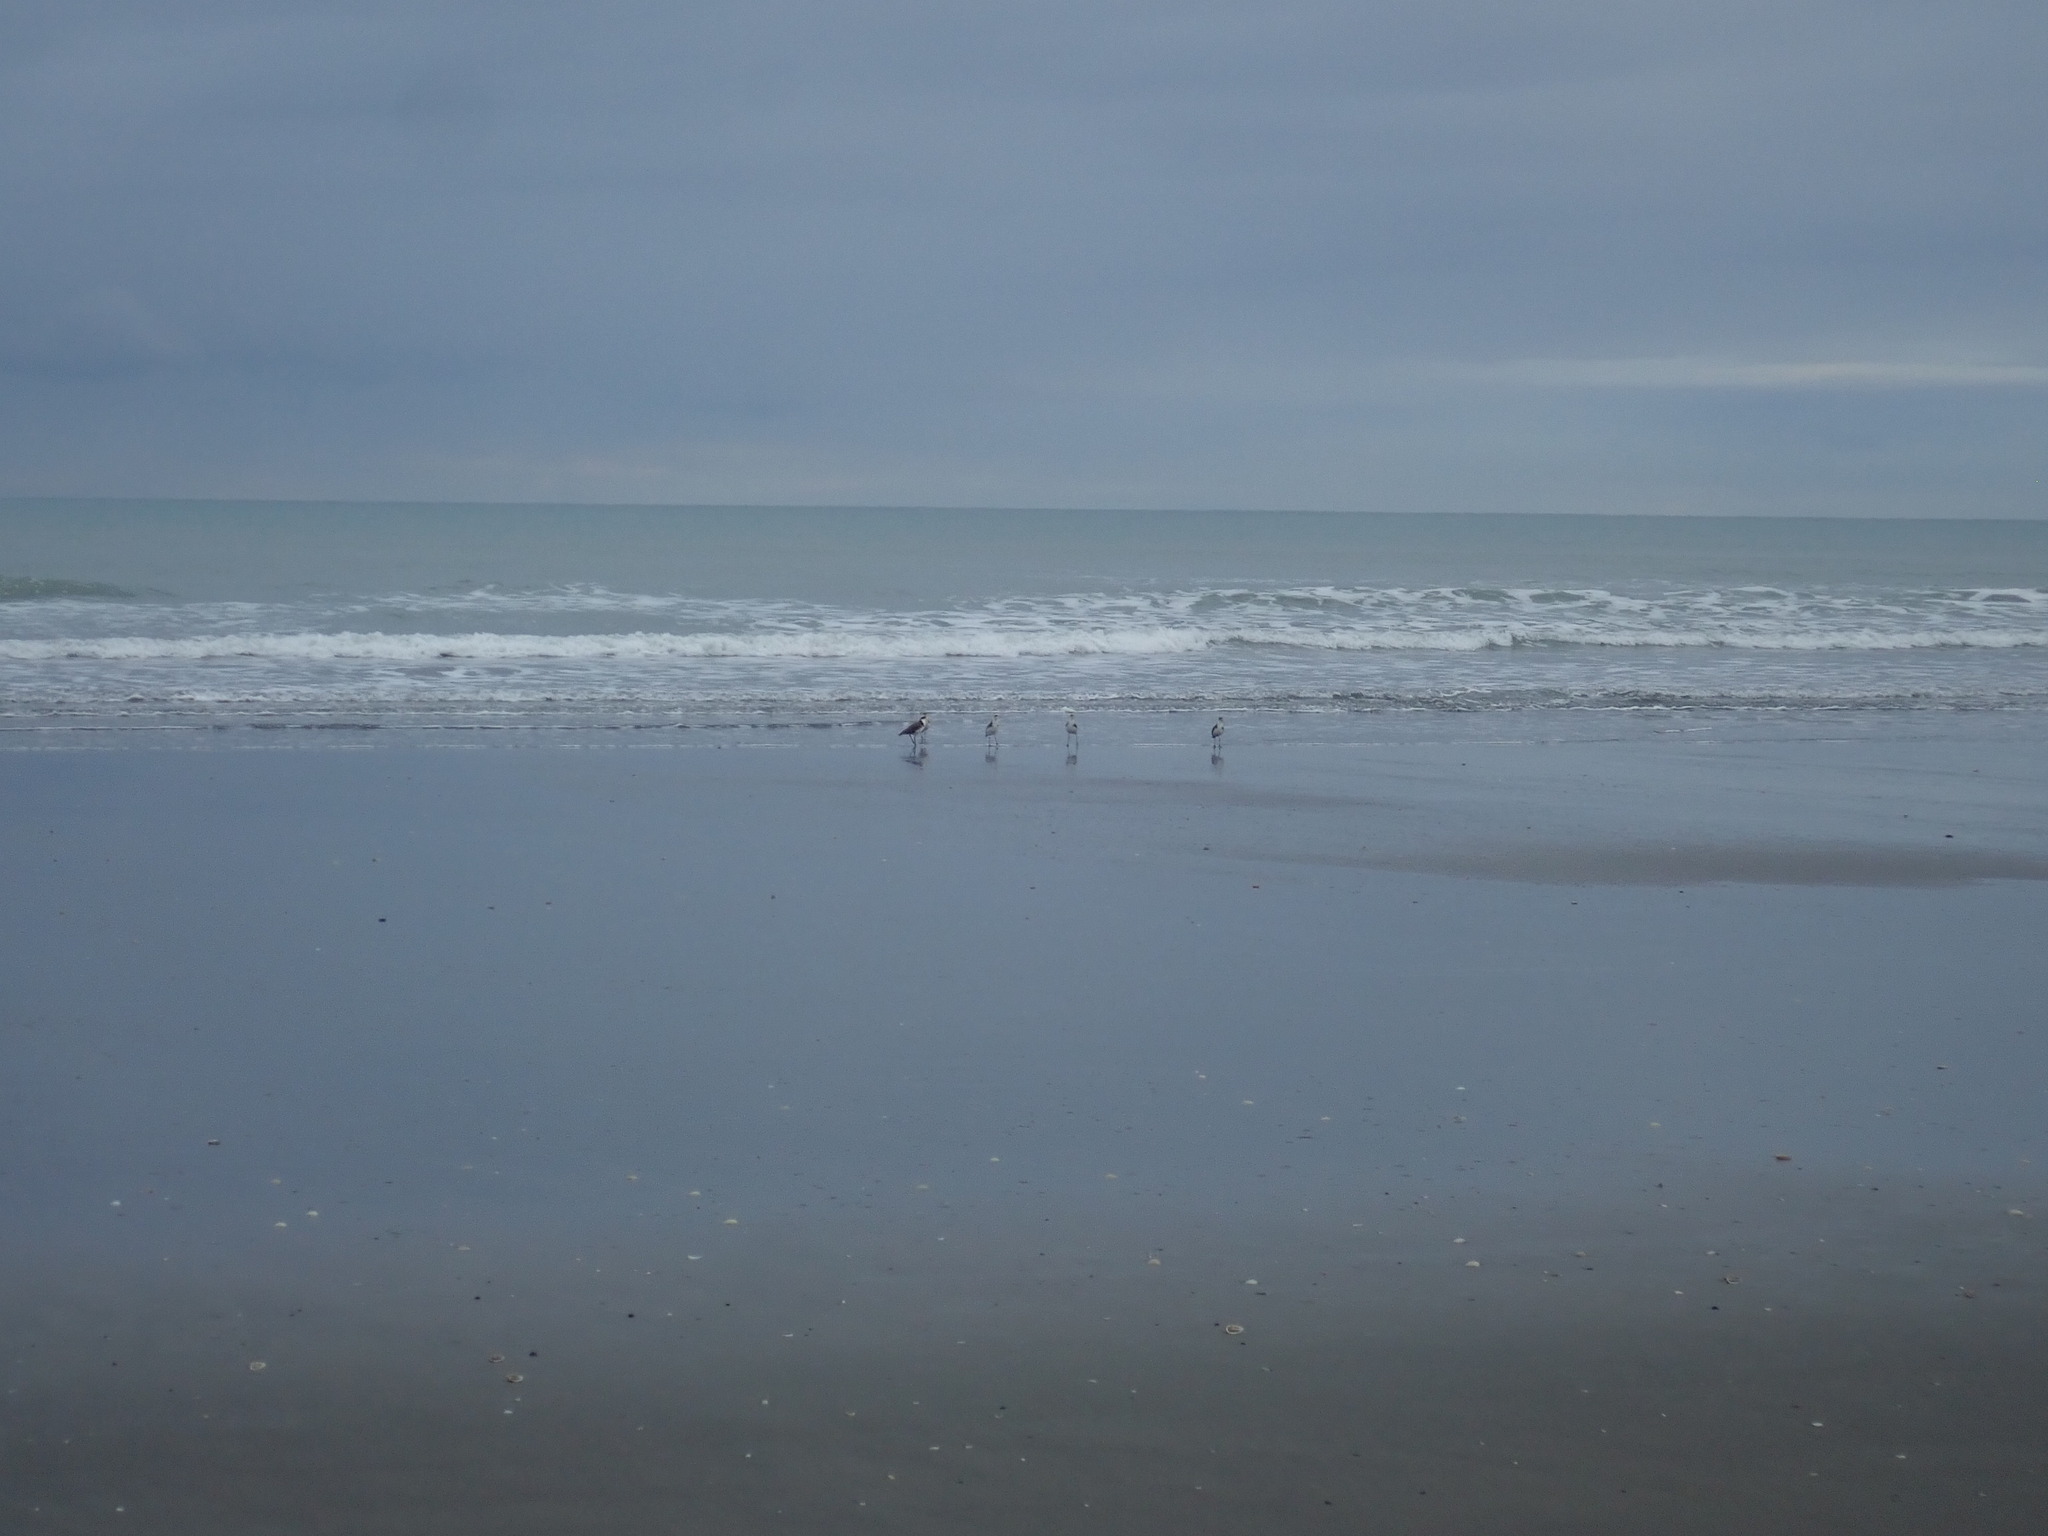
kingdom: Animalia
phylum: Chordata
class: Aves
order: Charadriiformes
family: Charadriidae
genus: Vanellus
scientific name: Vanellus miles
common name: Masked lapwing
